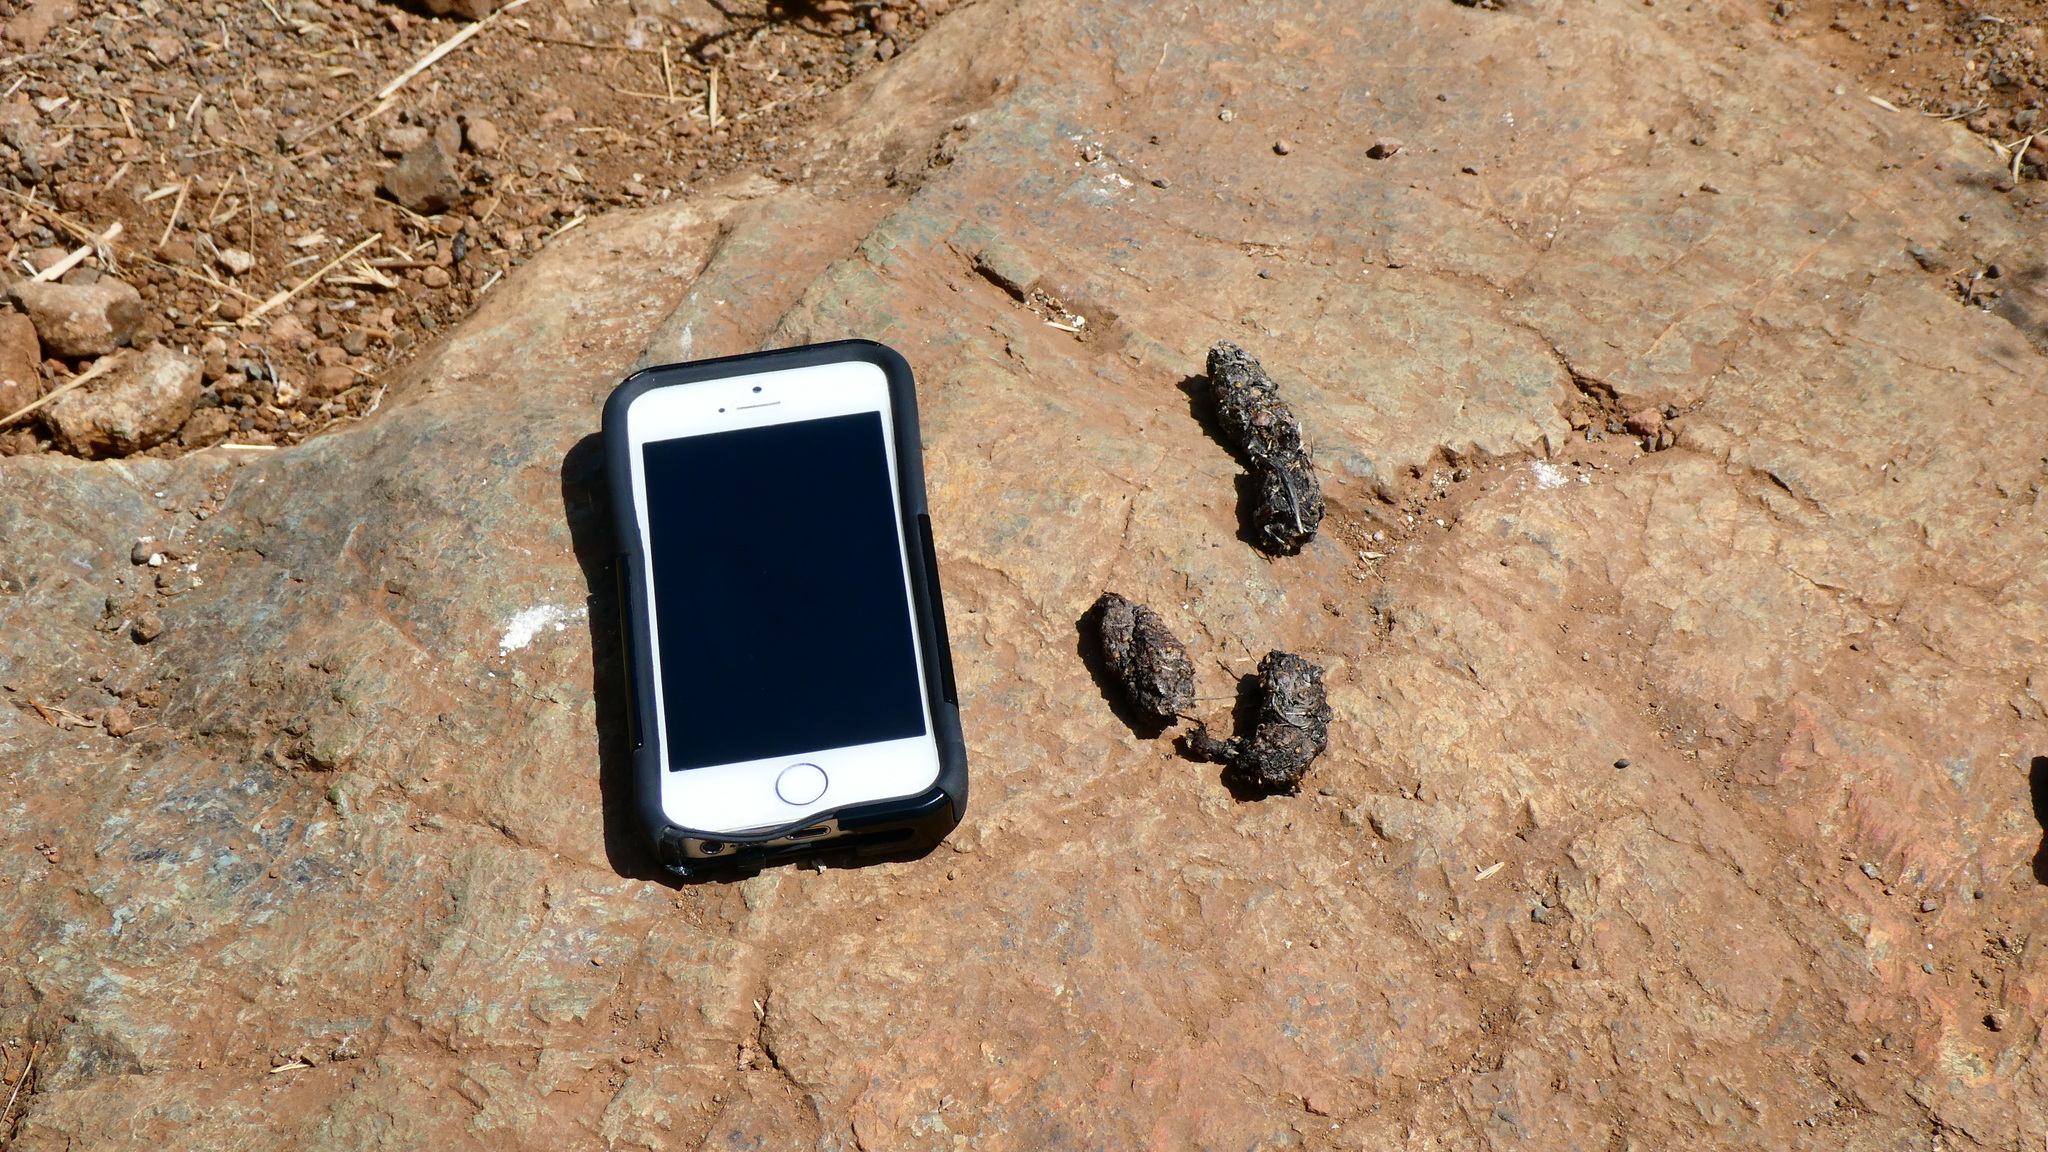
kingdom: Animalia
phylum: Chordata
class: Mammalia
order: Carnivora
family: Canidae
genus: Urocyon
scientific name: Urocyon cinereoargenteus
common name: Gray fox
